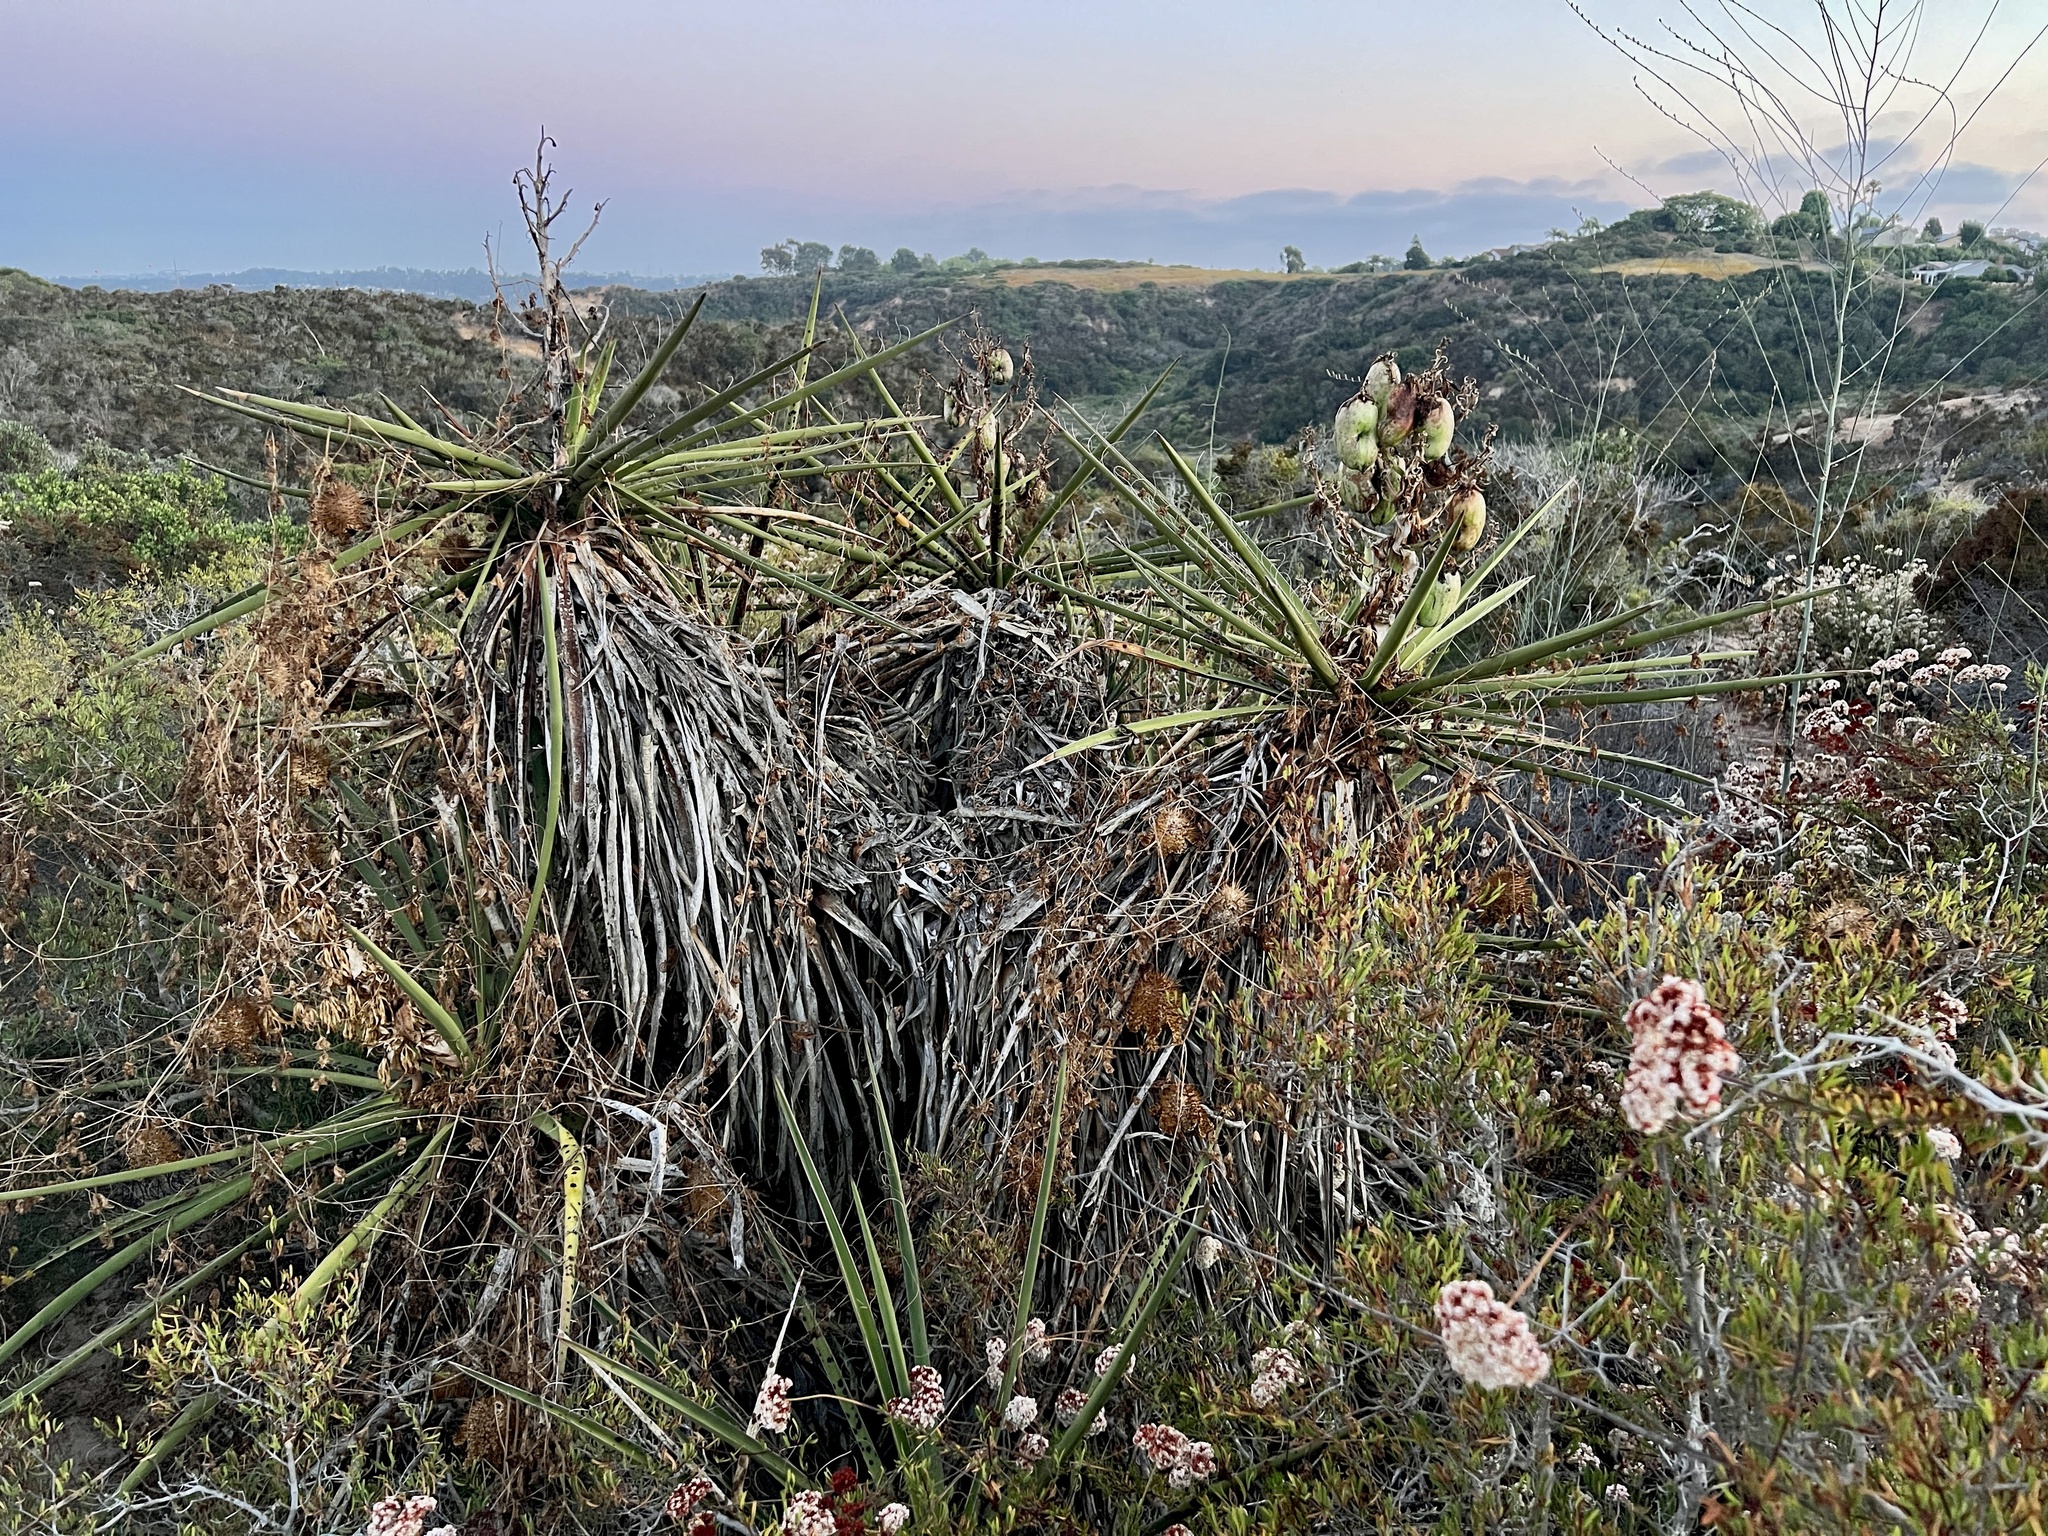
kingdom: Plantae
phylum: Tracheophyta
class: Liliopsida
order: Asparagales
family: Asparagaceae
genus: Yucca
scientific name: Yucca schidigera
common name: Mojave yucca
